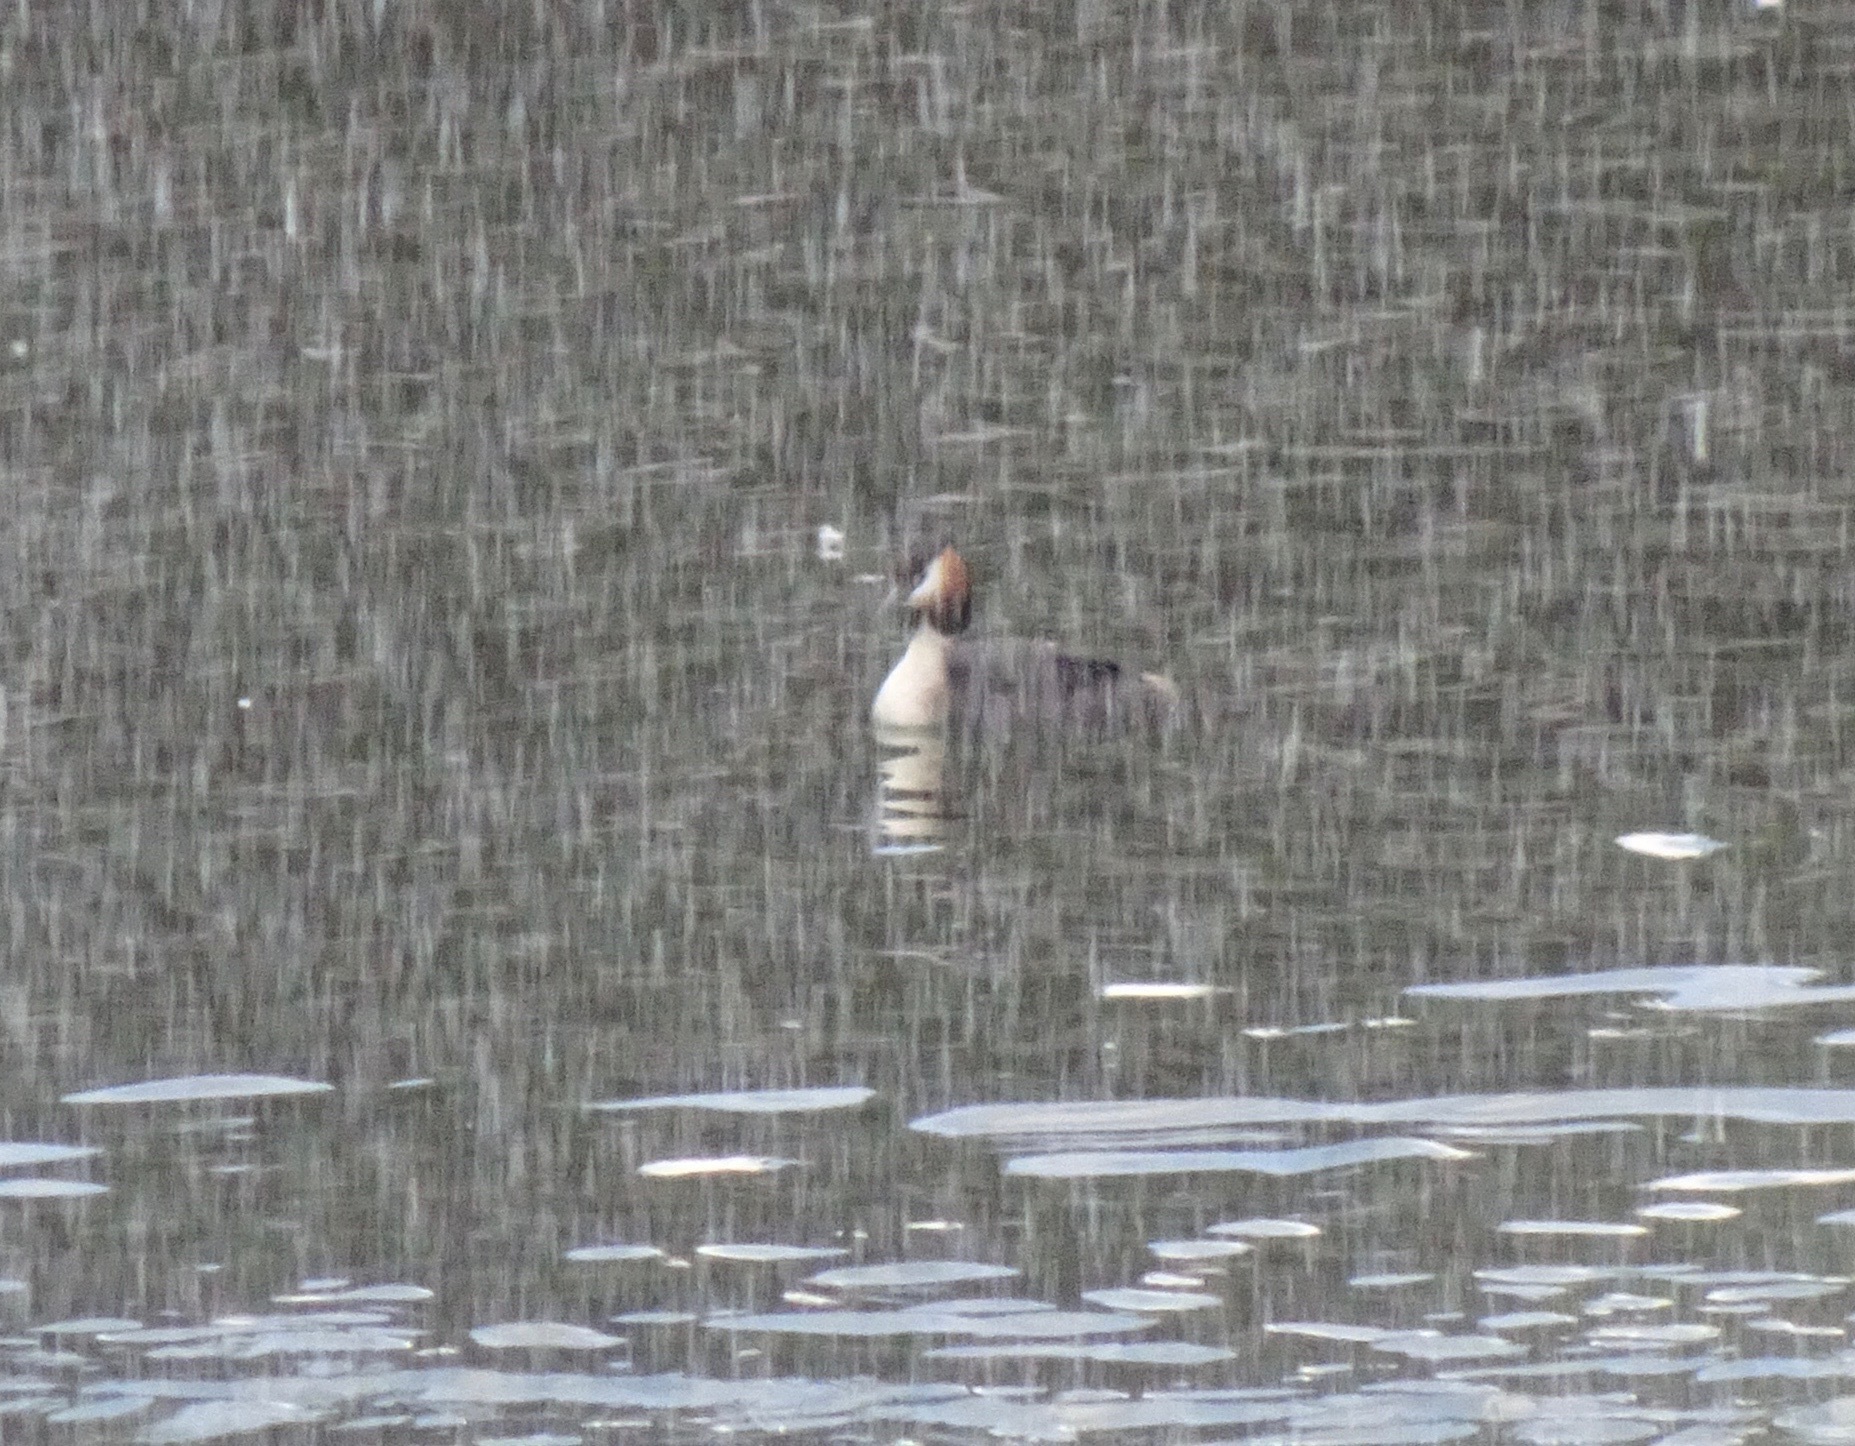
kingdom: Animalia
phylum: Chordata
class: Aves
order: Podicipediformes
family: Podicipedidae
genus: Podiceps
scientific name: Podiceps cristatus
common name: Great crested grebe
